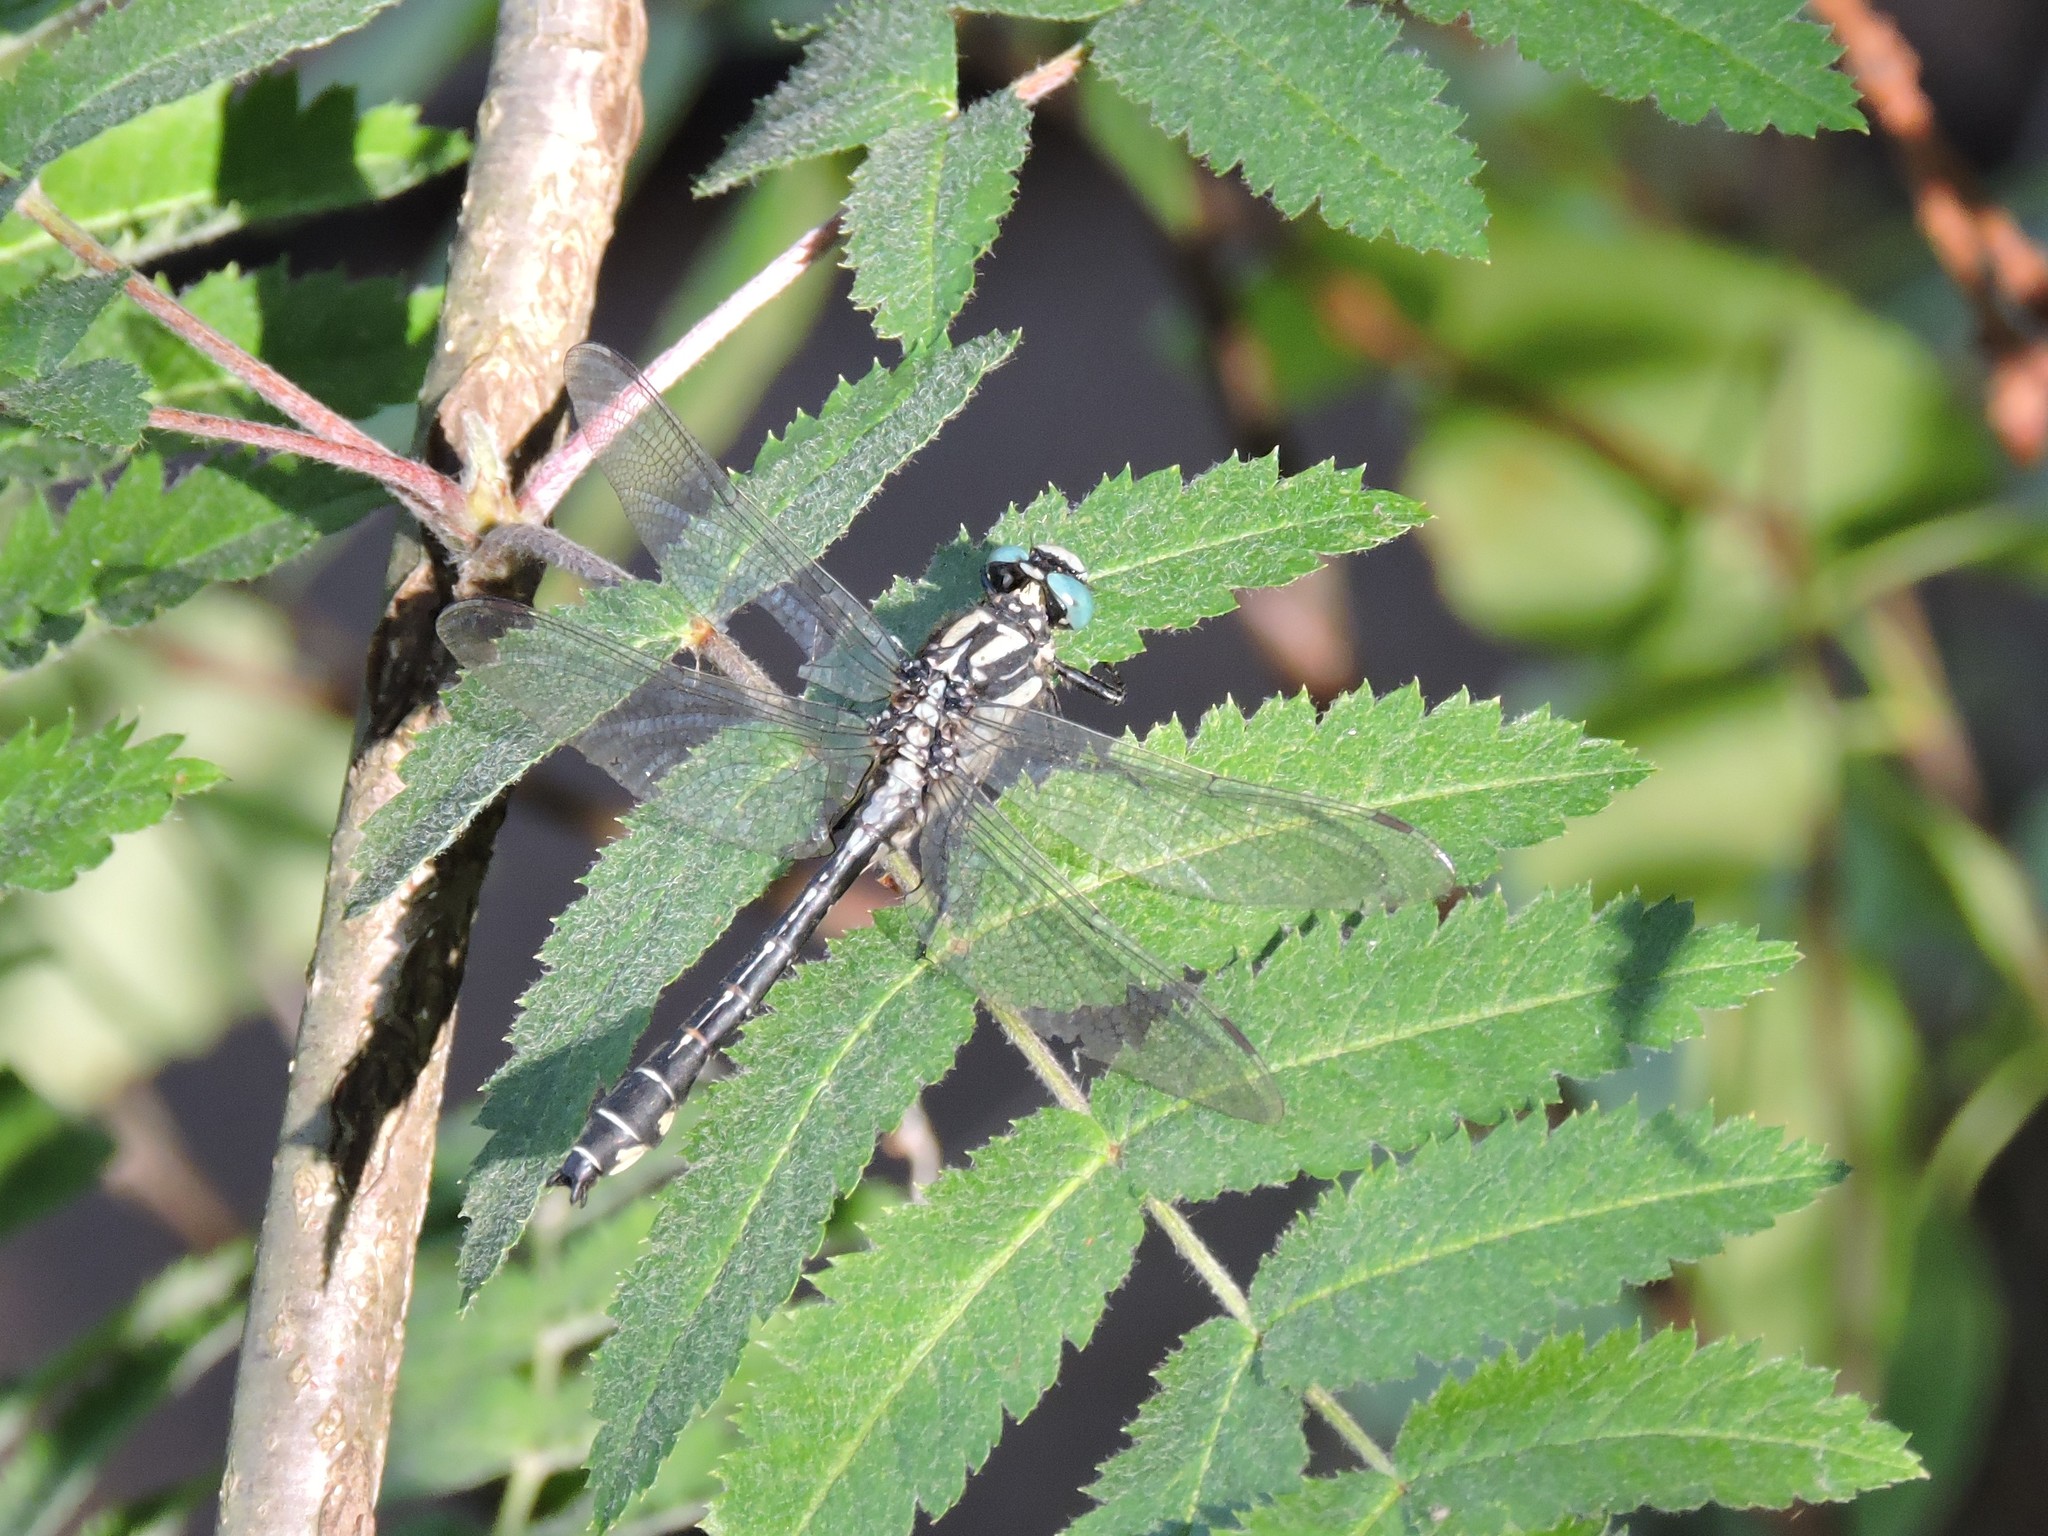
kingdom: Animalia
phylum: Arthropoda
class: Insecta
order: Odonata
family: Gomphidae
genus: Gomphus
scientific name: Gomphus vulgatissimus
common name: Club-tailed dragonfly
